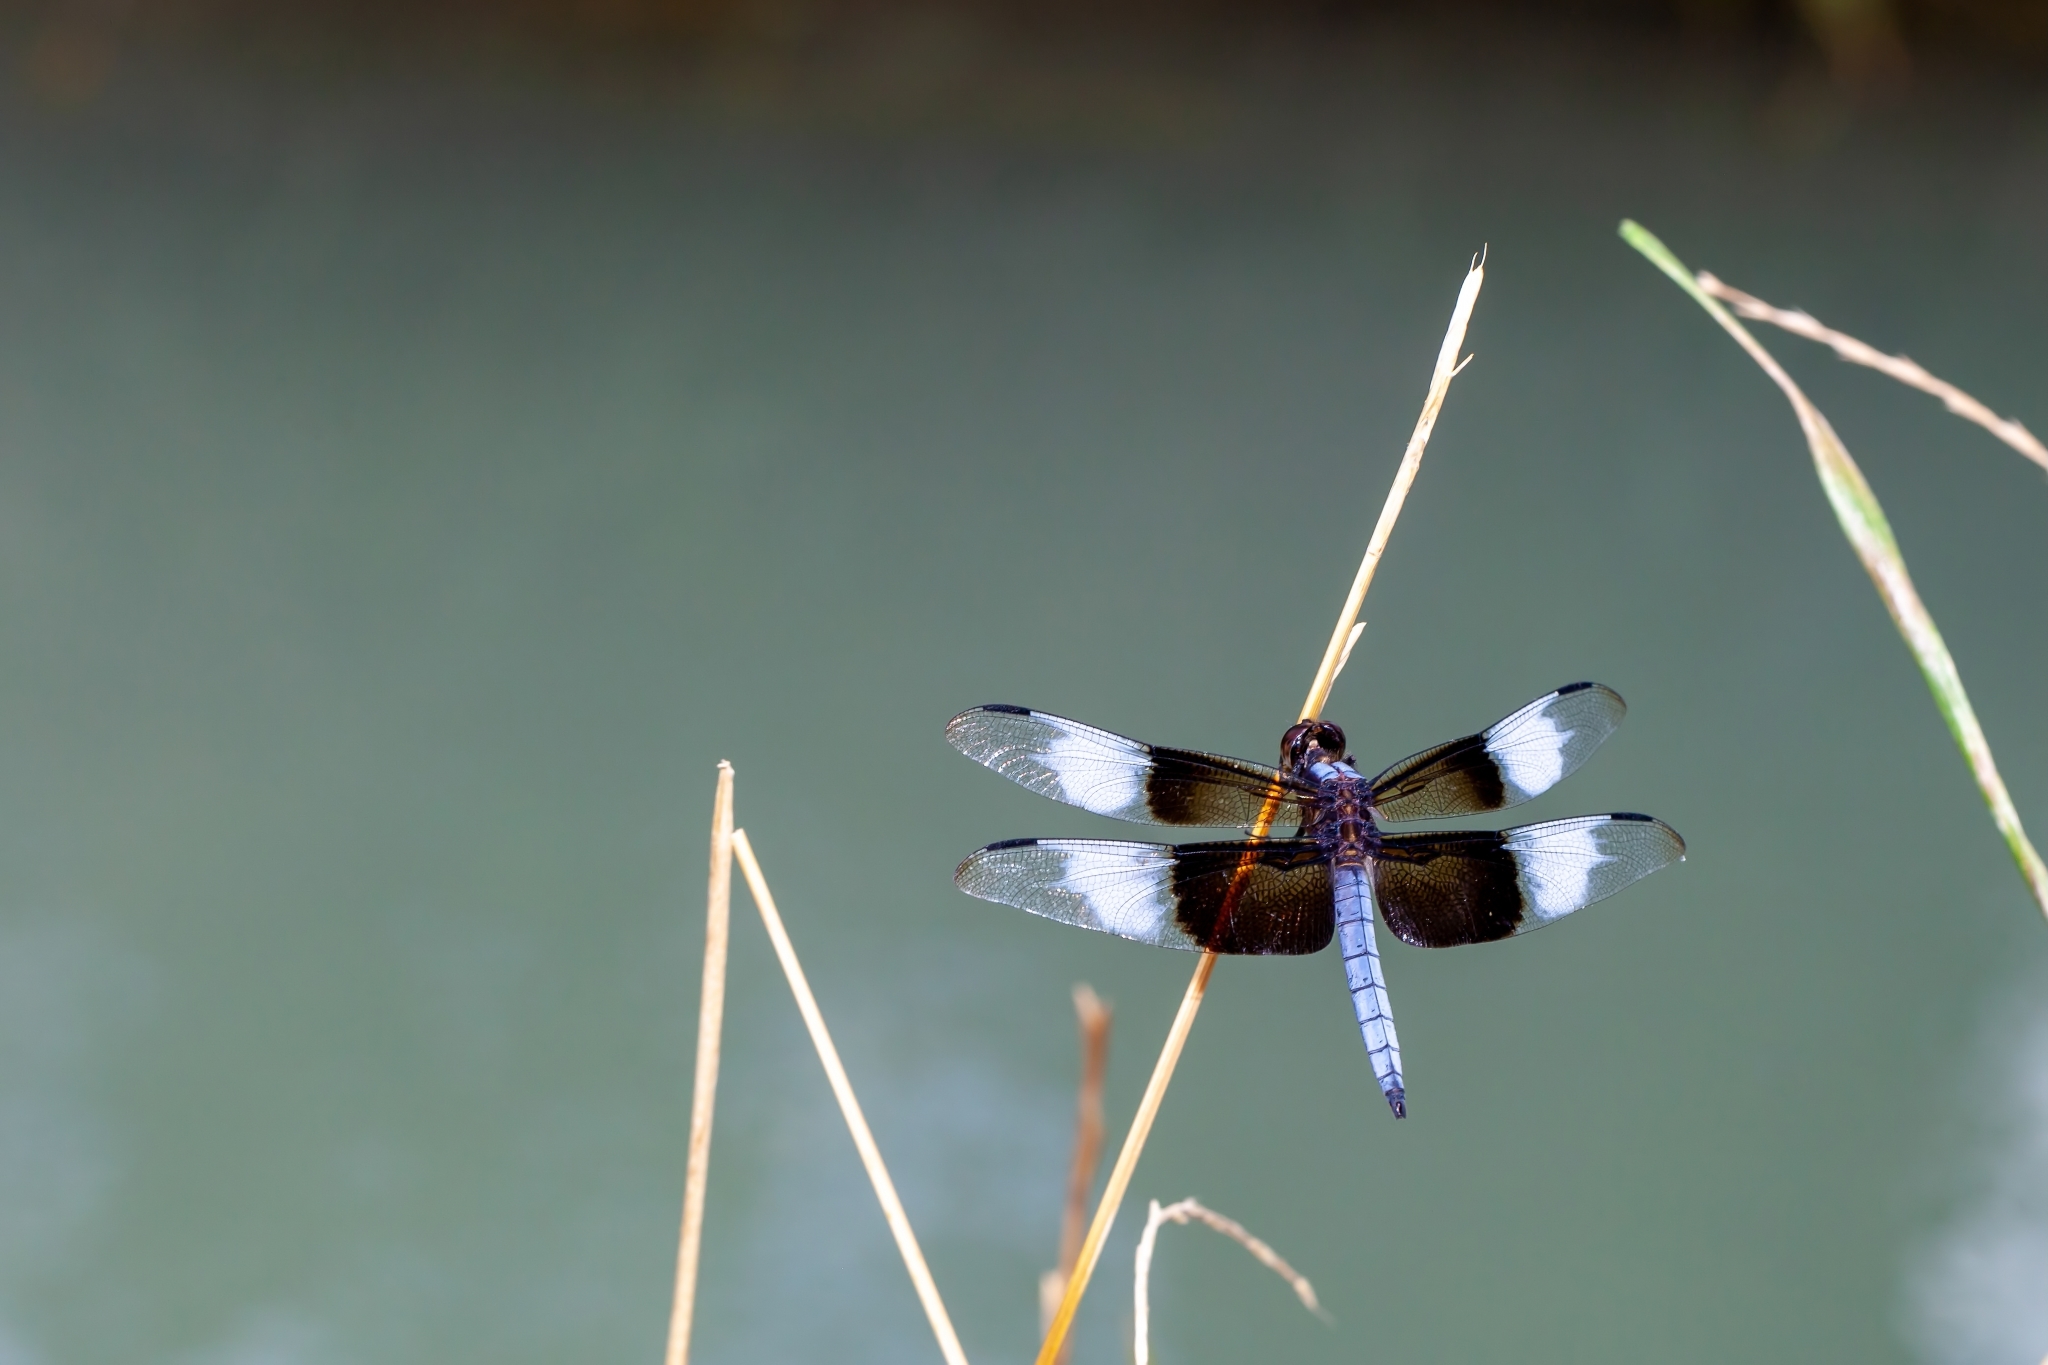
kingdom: Animalia
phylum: Arthropoda
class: Insecta
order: Odonata
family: Libellulidae
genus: Libellula
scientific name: Libellula luctuosa
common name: Widow skimmer
